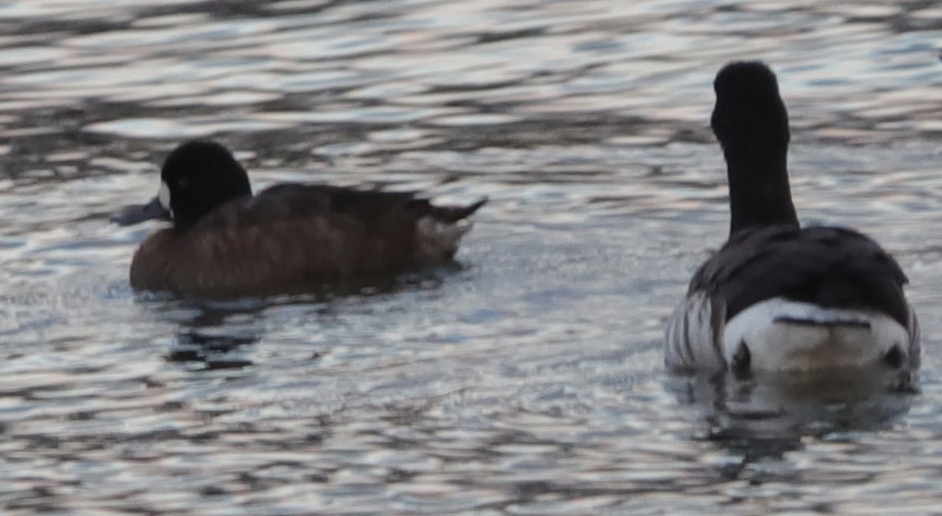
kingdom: Animalia
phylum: Chordata
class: Aves
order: Anseriformes
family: Anatidae
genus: Aythya
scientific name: Aythya marila
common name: Greater scaup
